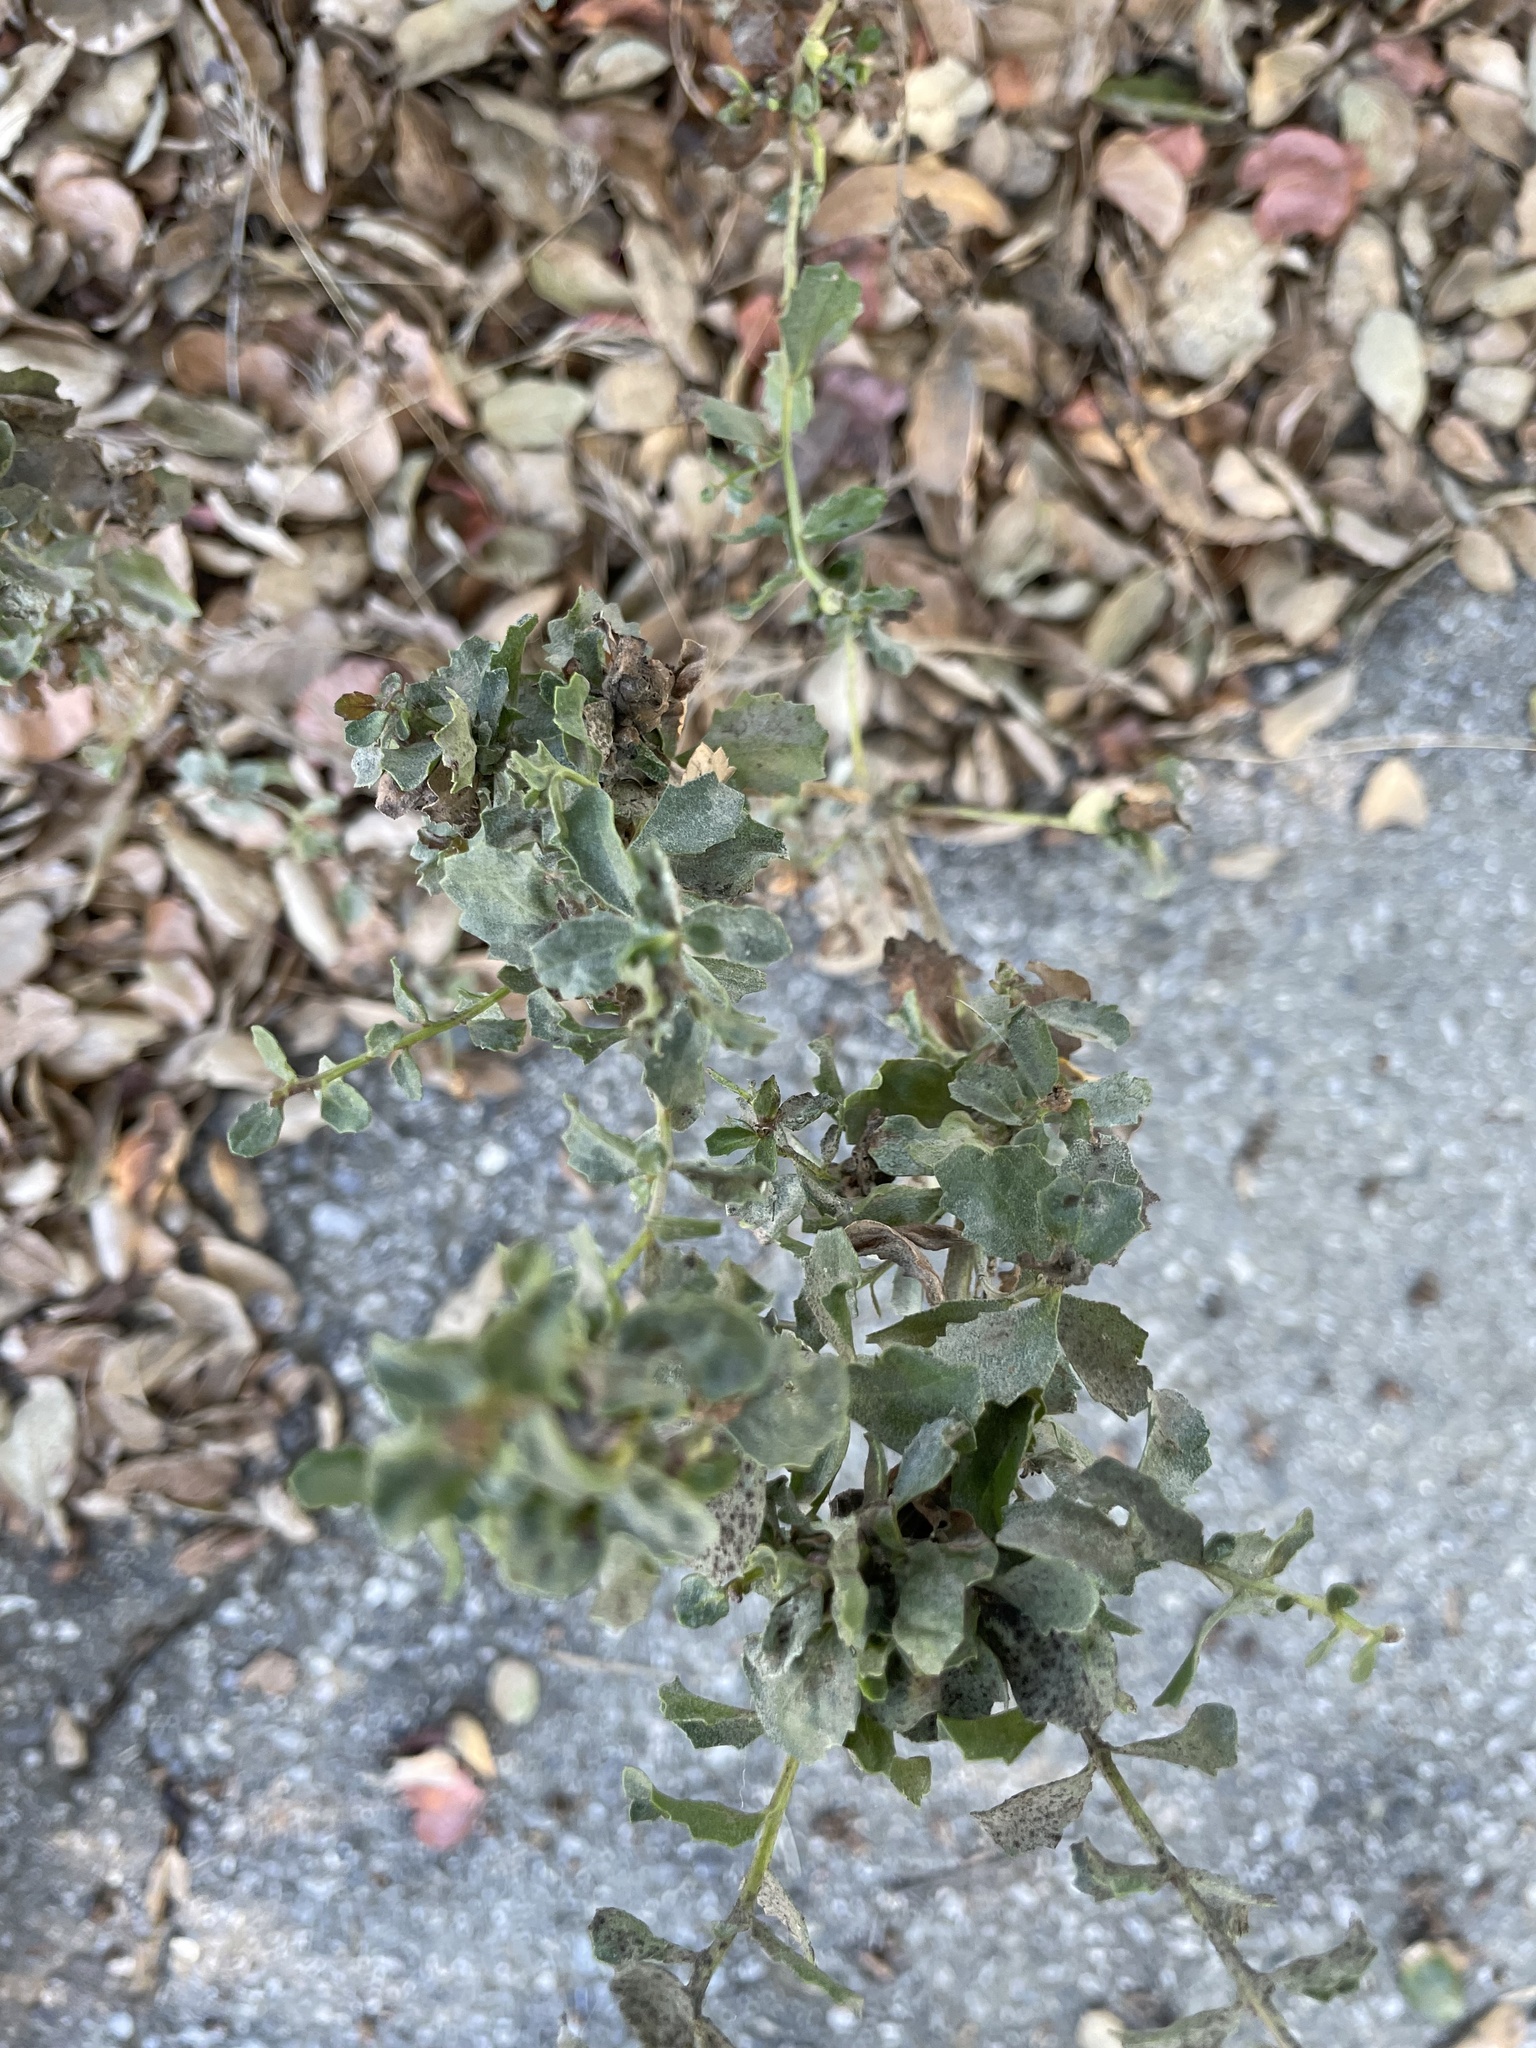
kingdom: Plantae
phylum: Tracheophyta
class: Magnoliopsida
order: Asterales
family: Asteraceae
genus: Baccharis
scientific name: Baccharis pilularis
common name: Coyotebrush
